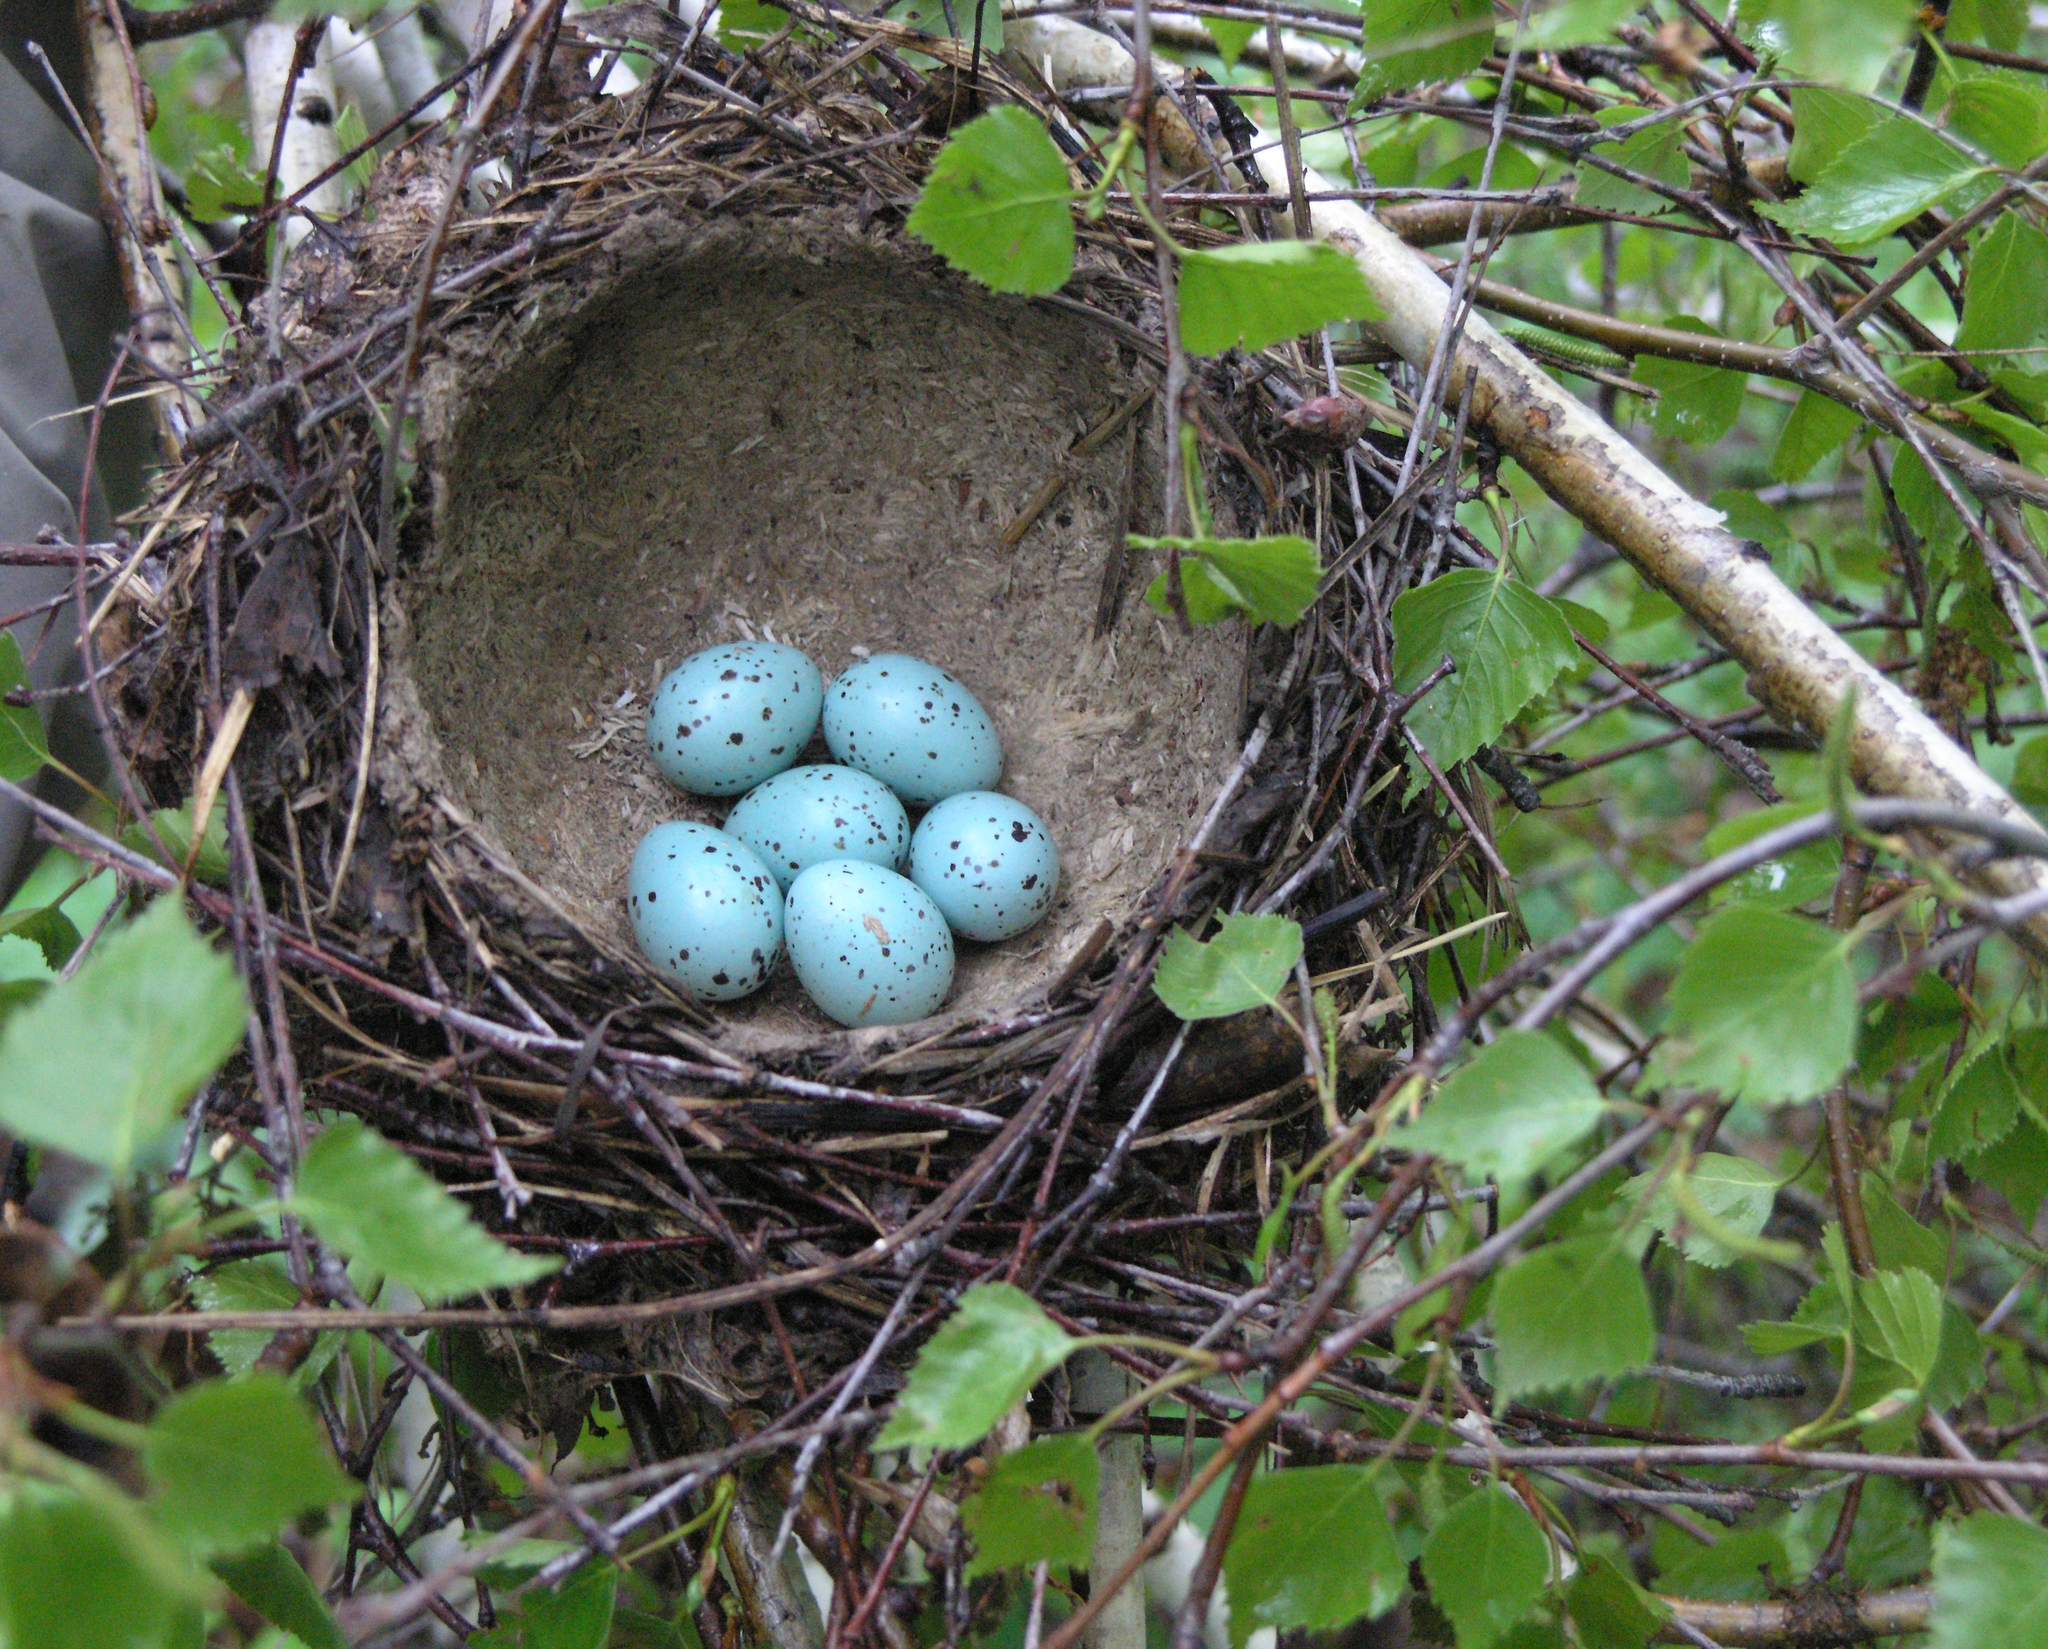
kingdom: Animalia
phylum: Chordata
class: Aves
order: Passeriformes
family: Turdidae
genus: Turdus
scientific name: Turdus philomelos
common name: Song thrush
